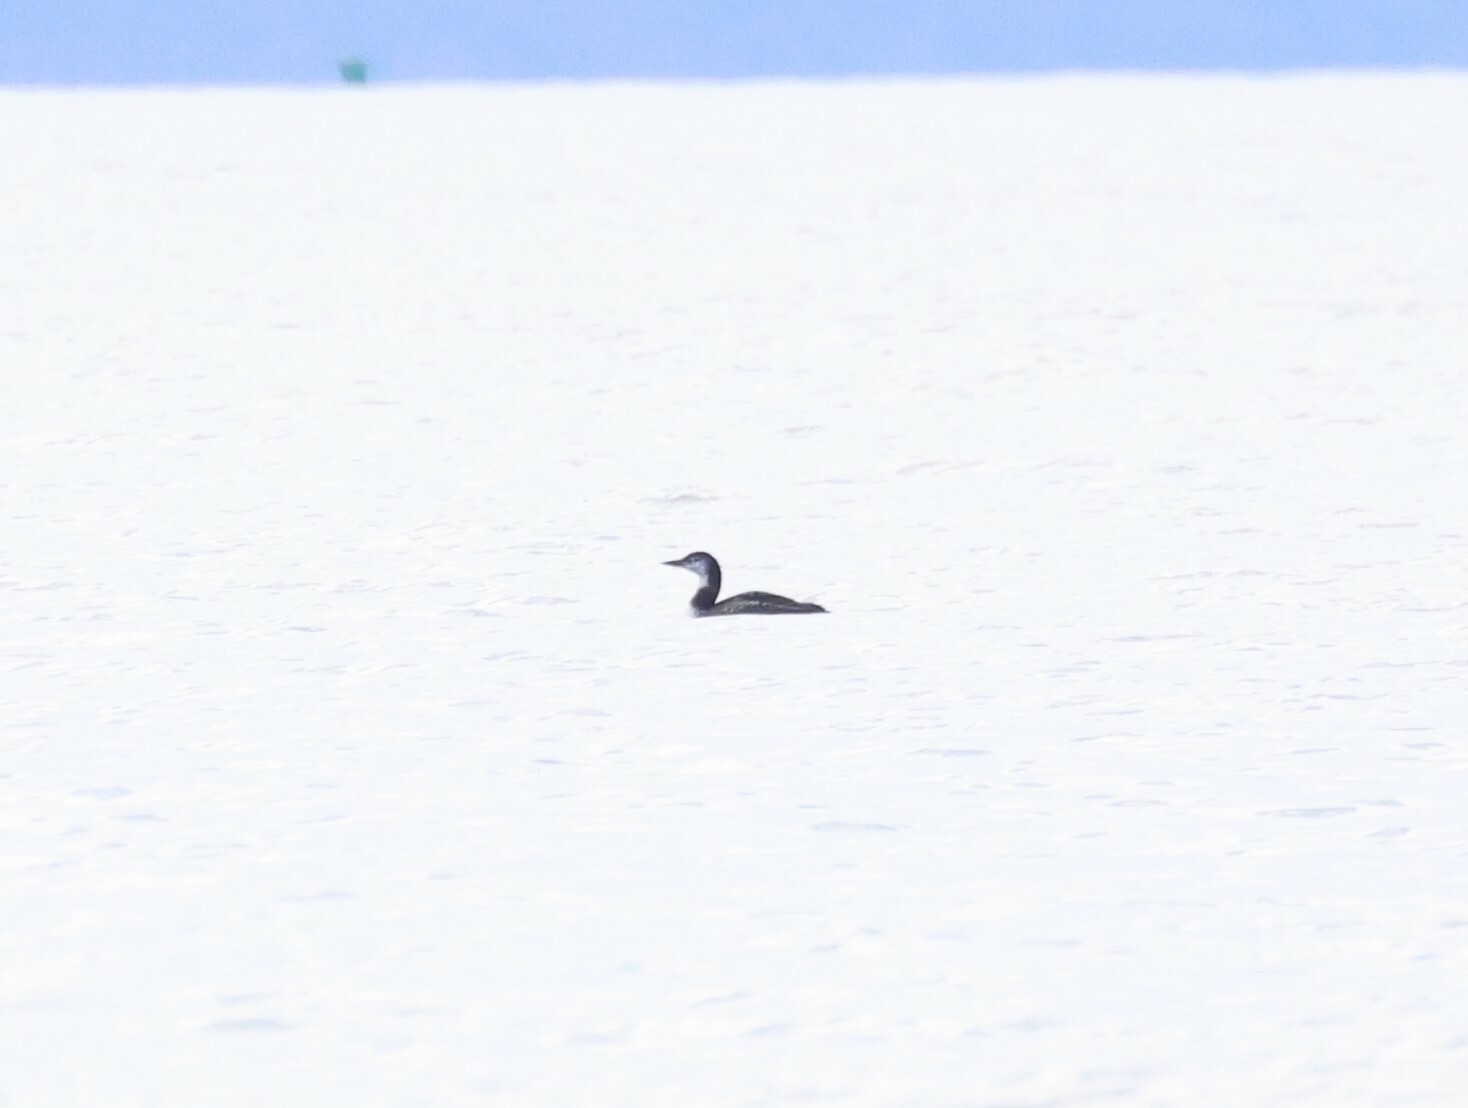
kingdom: Animalia
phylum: Chordata
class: Aves
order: Gaviiformes
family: Gaviidae
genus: Gavia
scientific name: Gavia immer
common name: Common loon
